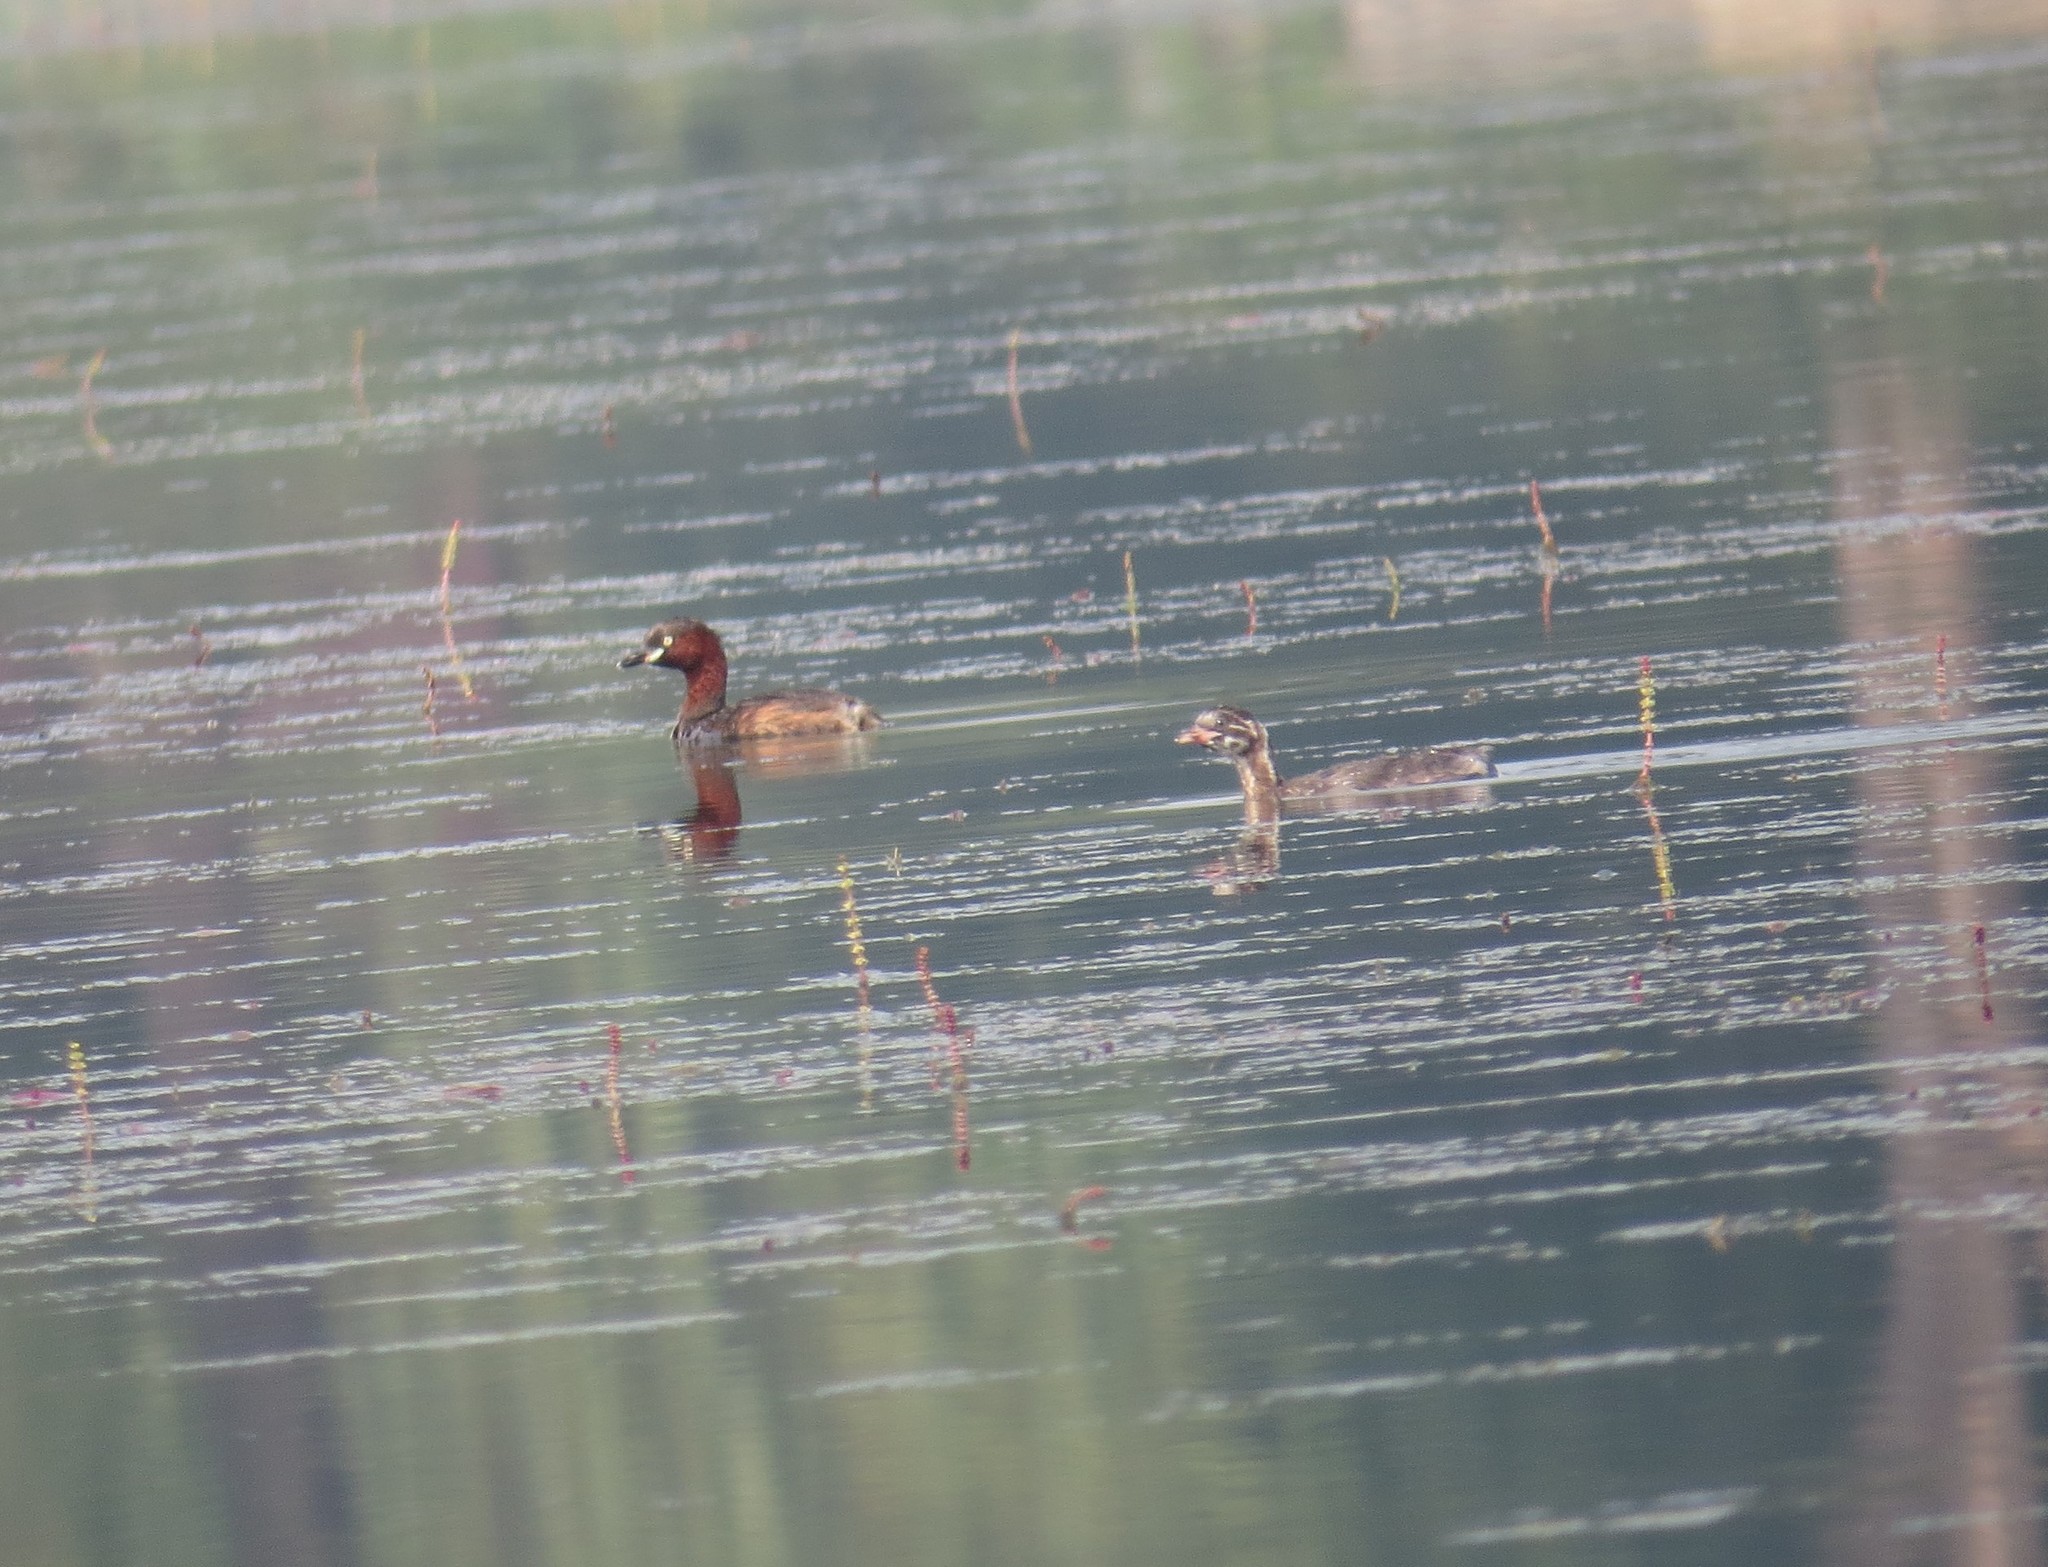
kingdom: Animalia
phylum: Chordata
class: Aves
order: Podicipediformes
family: Podicipedidae
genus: Tachybaptus
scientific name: Tachybaptus ruficollis
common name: Little grebe
